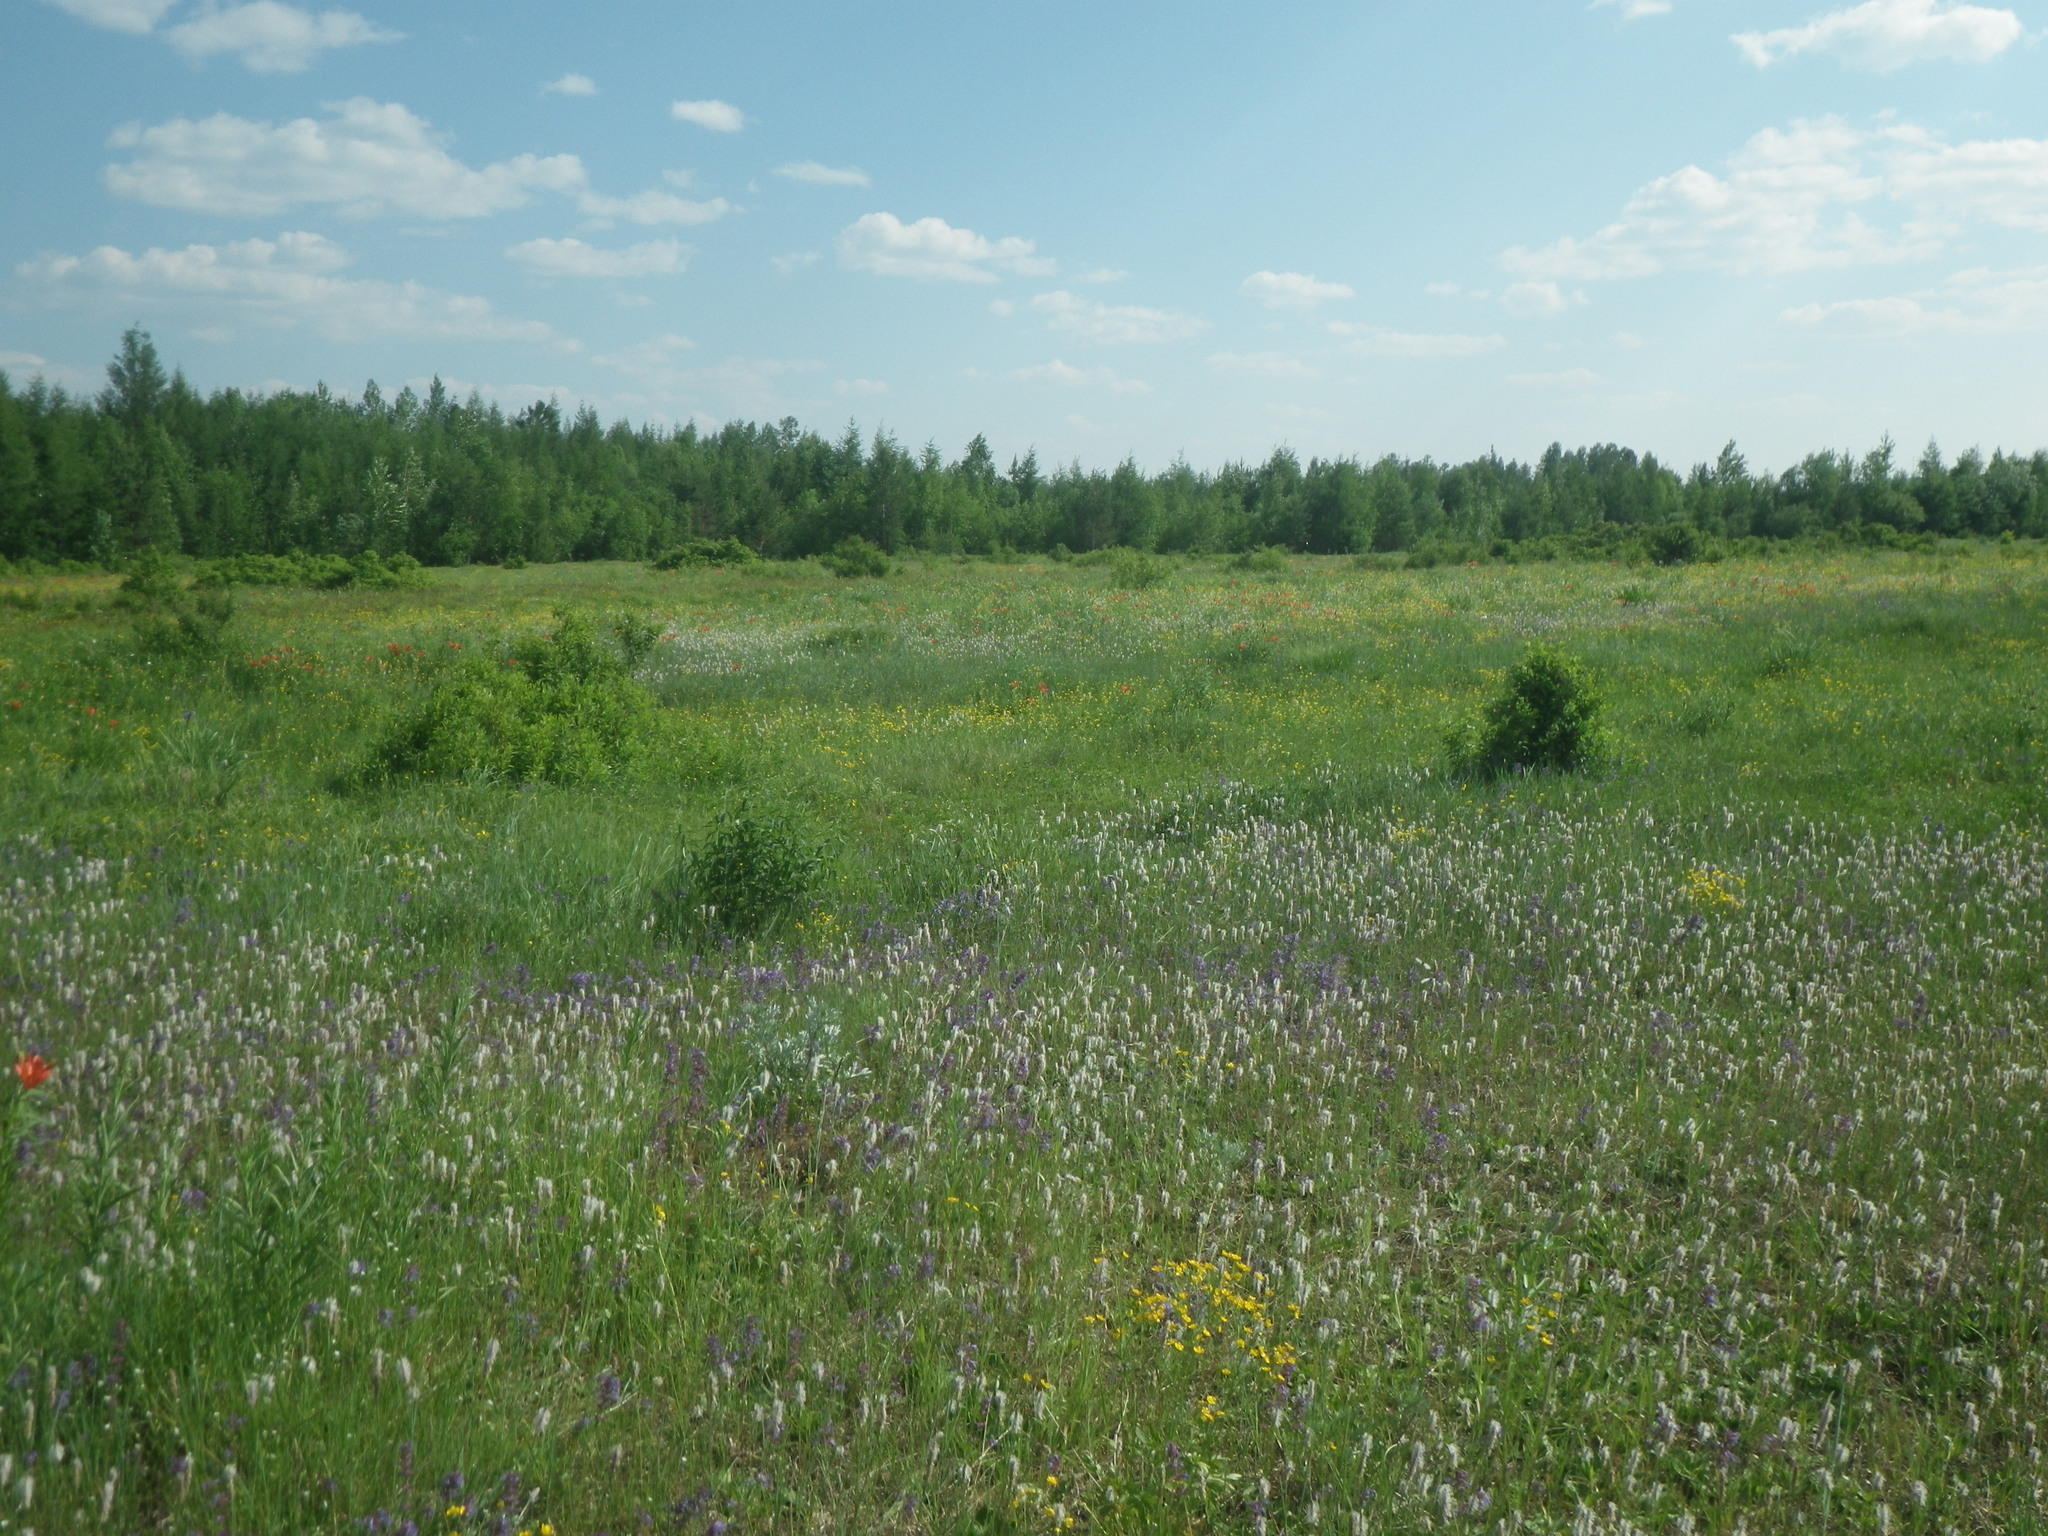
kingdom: Plantae
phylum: Tracheophyta
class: Liliopsida
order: Liliales
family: Liliaceae
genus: Lilium
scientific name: Lilium pensylvanicum
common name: Candlestick lily
